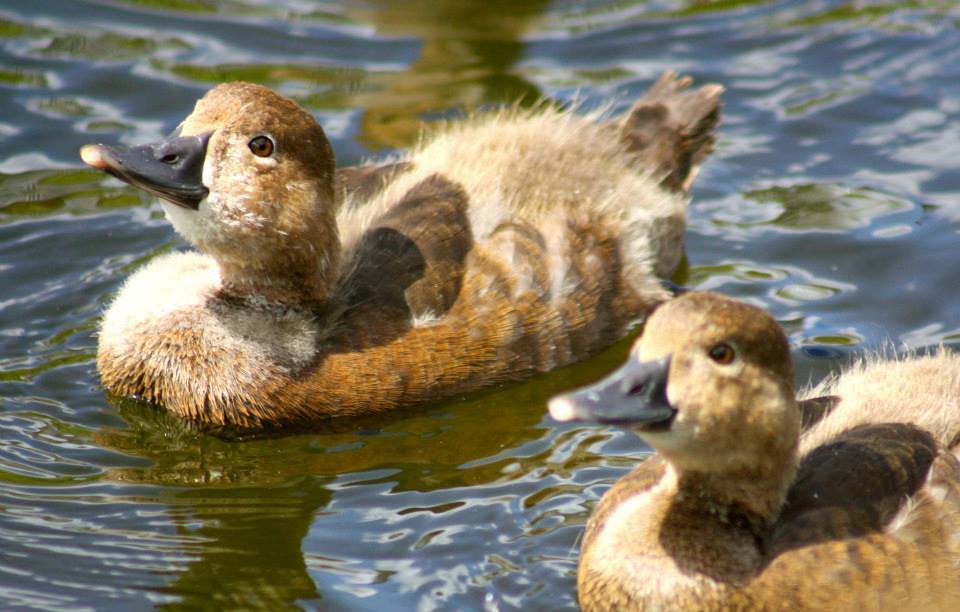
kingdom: Animalia
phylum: Chordata
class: Aves
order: Anseriformes
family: Anatidae
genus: Aythya
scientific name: Aythya americana
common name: Redhead
